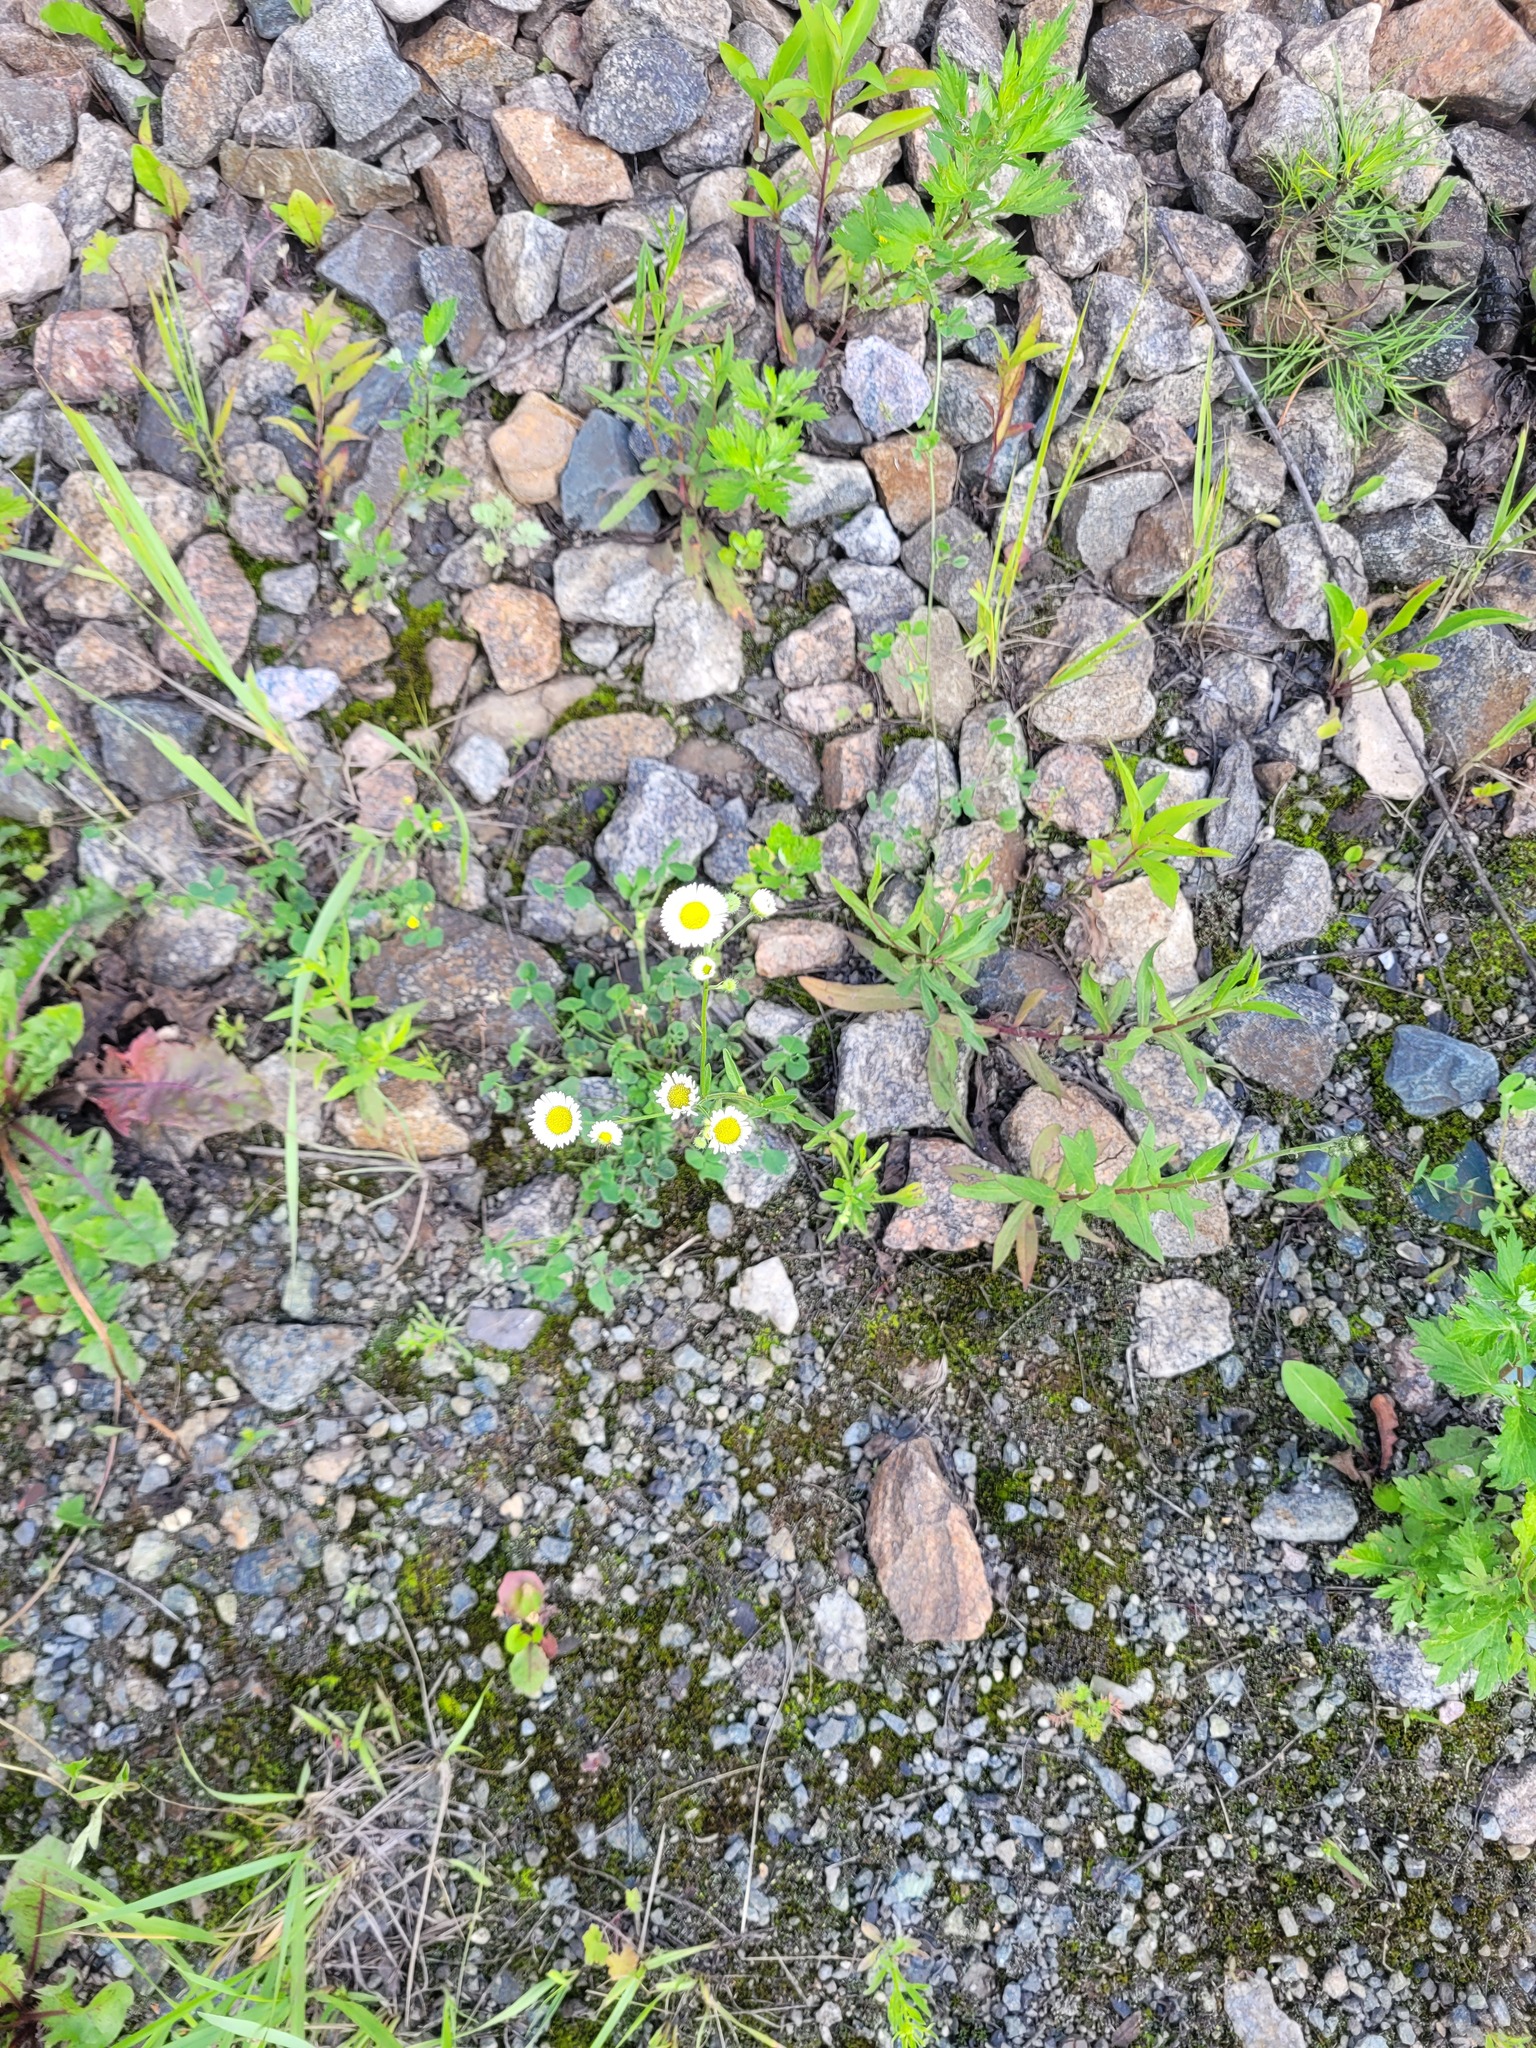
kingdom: Plantae
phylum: Tracheophyta
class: Magnoliopsida
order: Asterales
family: Asteraceae
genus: Erigeron
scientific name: Erigeron annuus
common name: Tall fleabane
